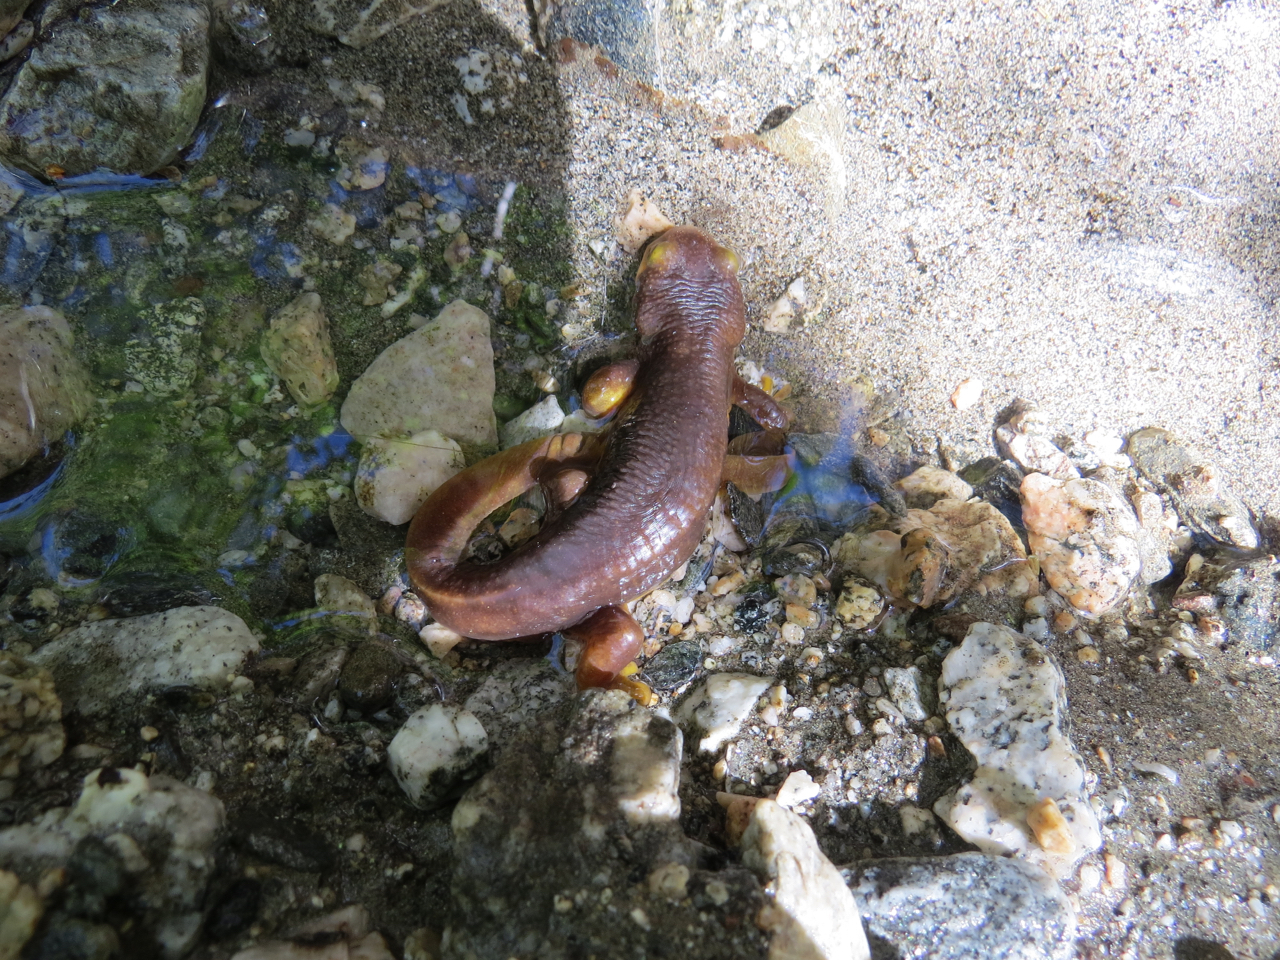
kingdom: Animalia
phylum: Chordata
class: Amphibia
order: Caudata
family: Salamandridae
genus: Taricha
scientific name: Taricha torosa
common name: California newt
